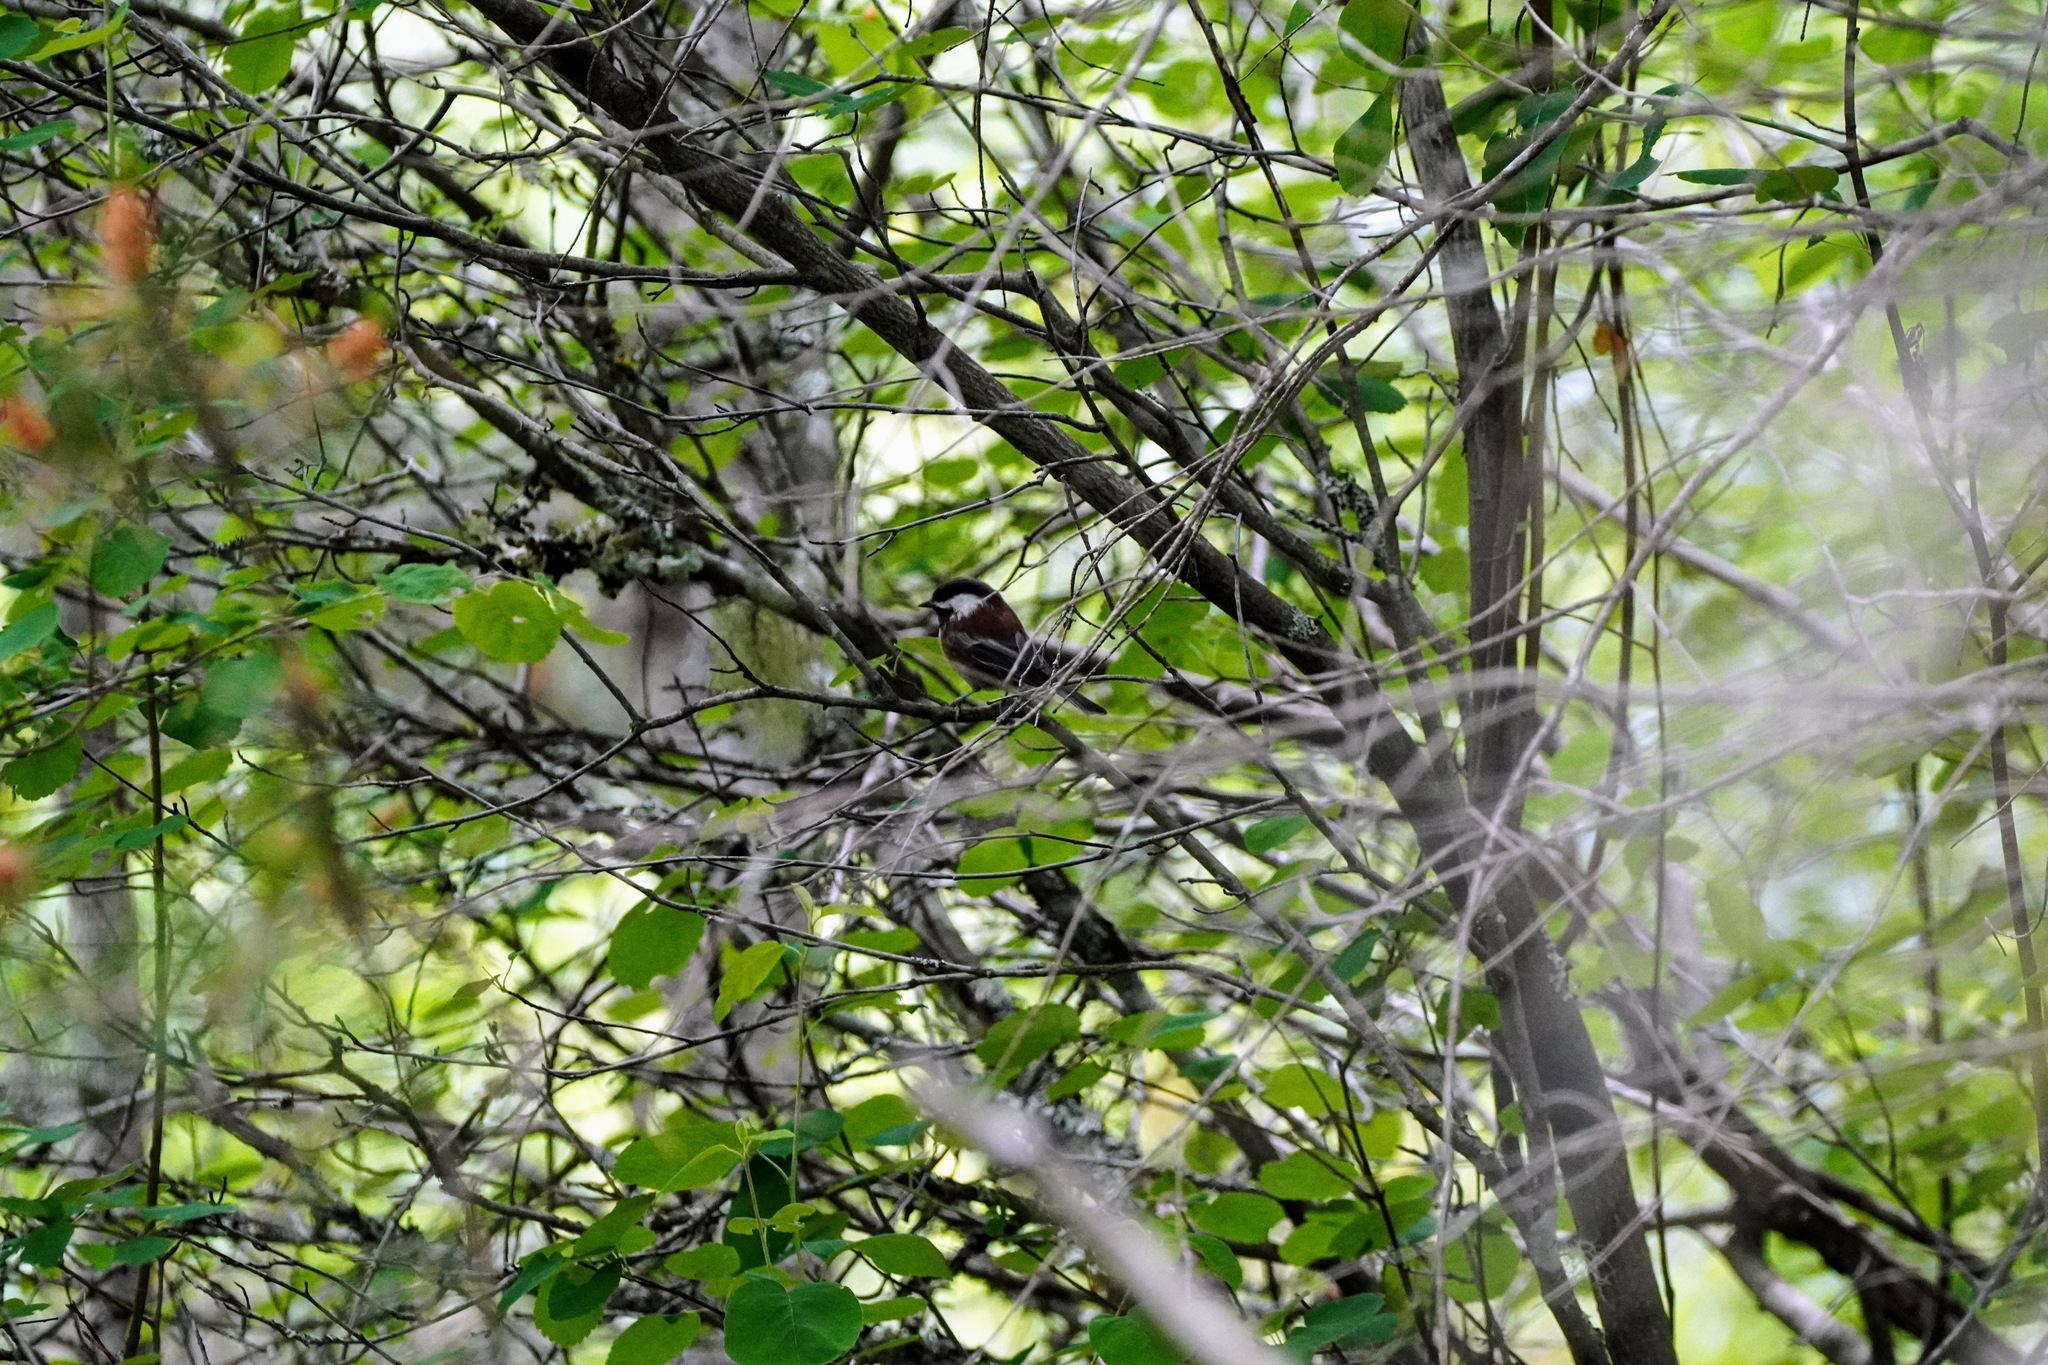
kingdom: Animalia
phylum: Chordata
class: Aves
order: Passeriformes
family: Paridae
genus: Poecile
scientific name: Poecile rufescens
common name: Chestnut-backed chickadee
